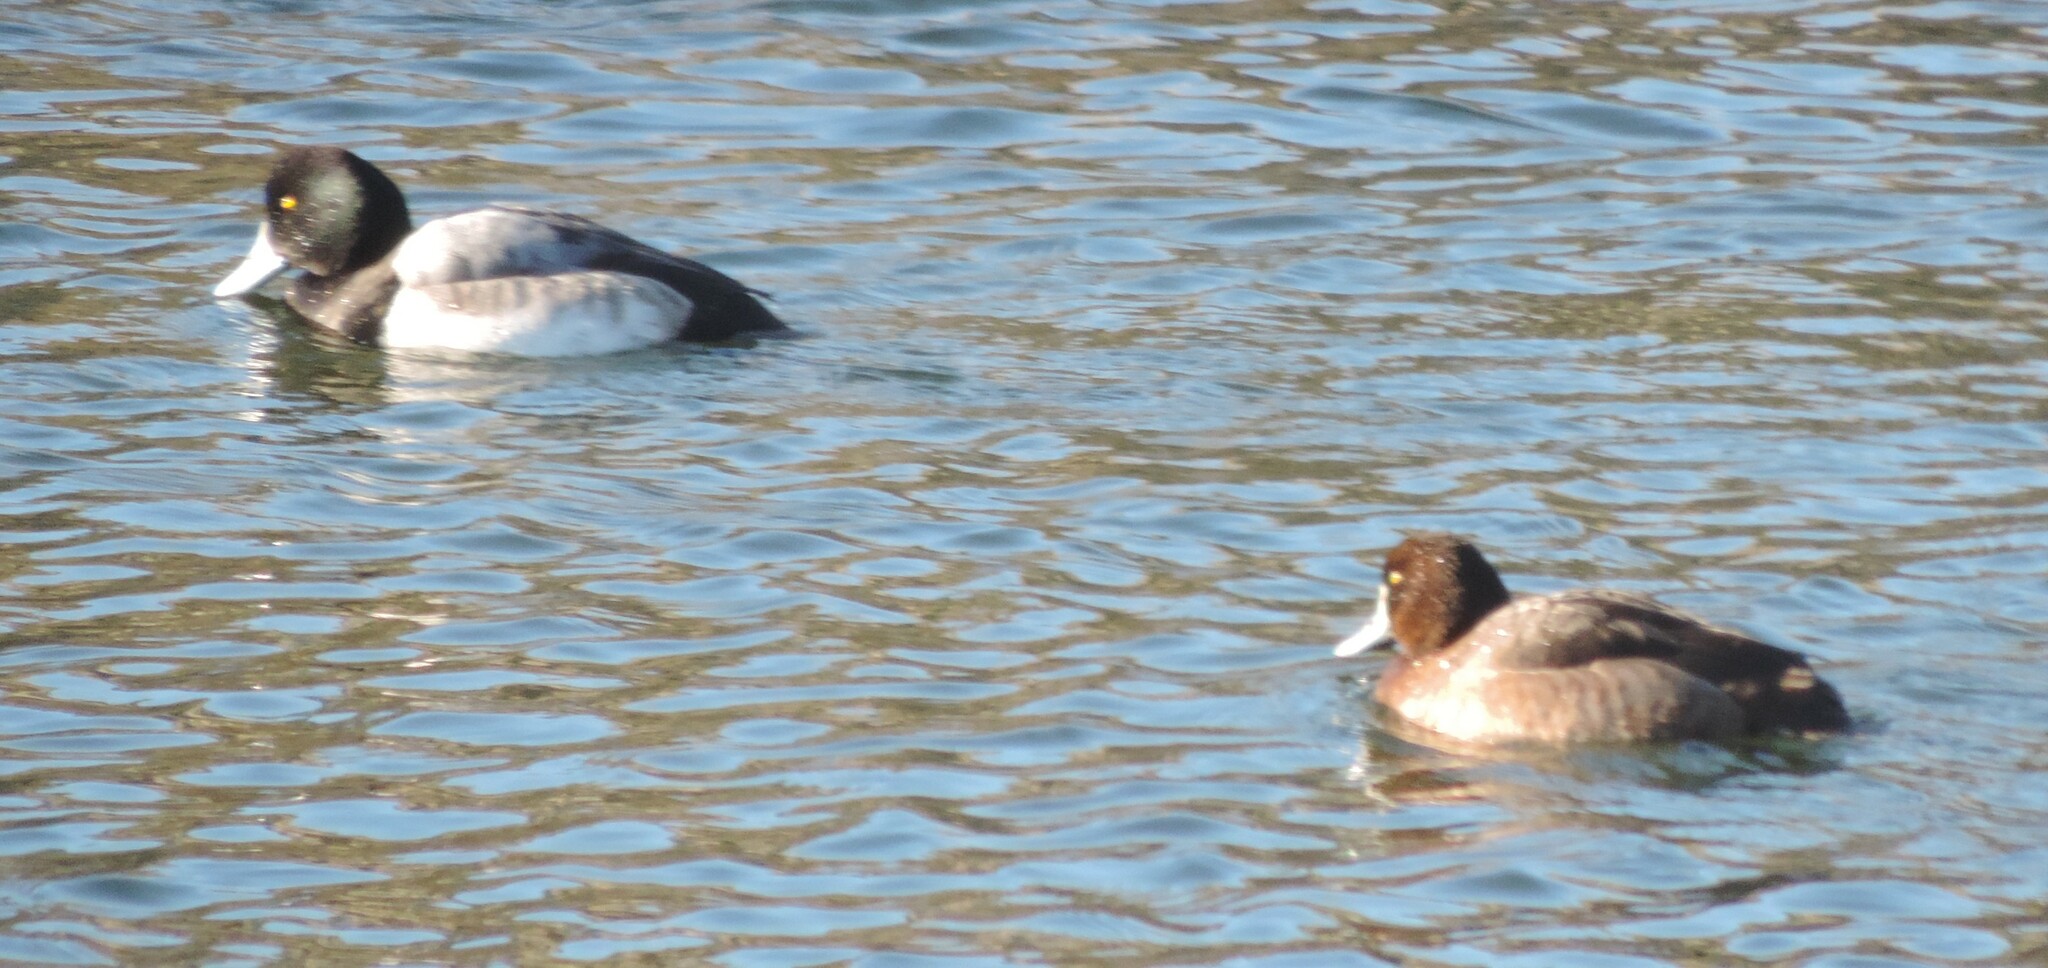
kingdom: Animalia
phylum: Chordata
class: Aves
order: Anseriformes
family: Anatidae
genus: Aythya
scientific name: Aythya marila
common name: Greater scaup
